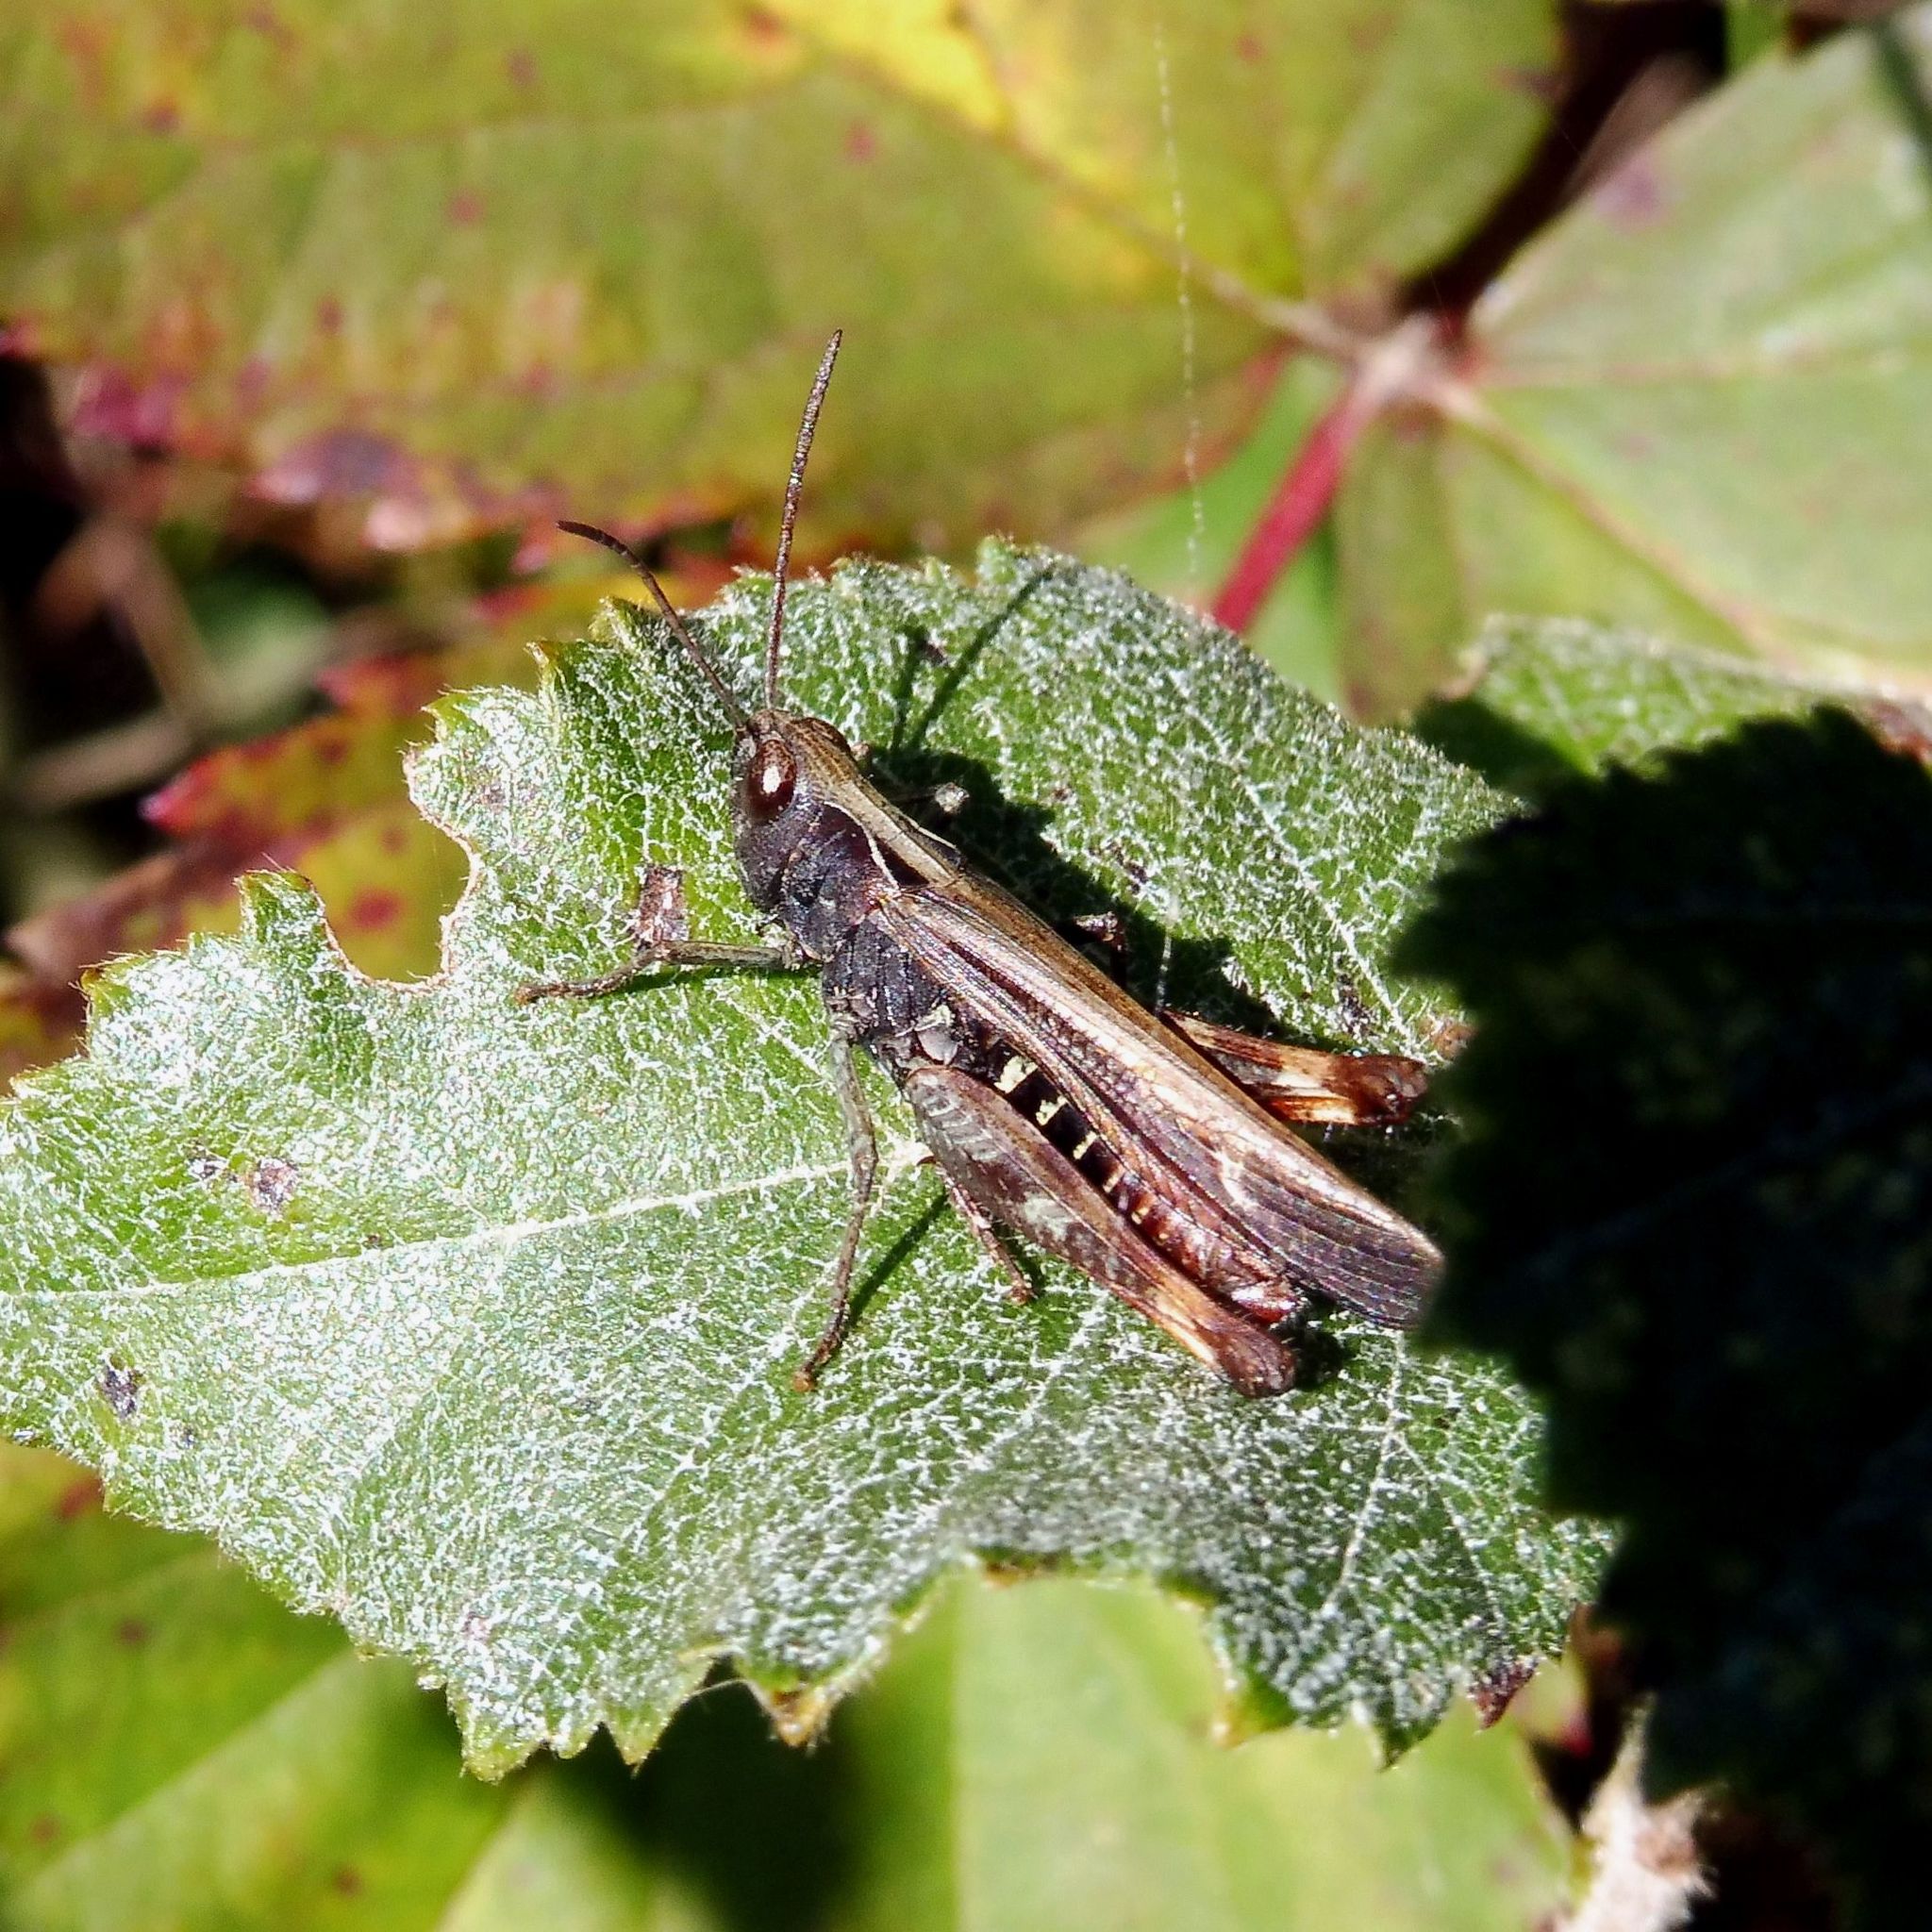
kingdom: Animalia
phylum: Arthropoda
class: Insecta
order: Orthoptera
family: Acrididae
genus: Omocestus
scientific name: Omocestus rufipes
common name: Woodland grasshopper
